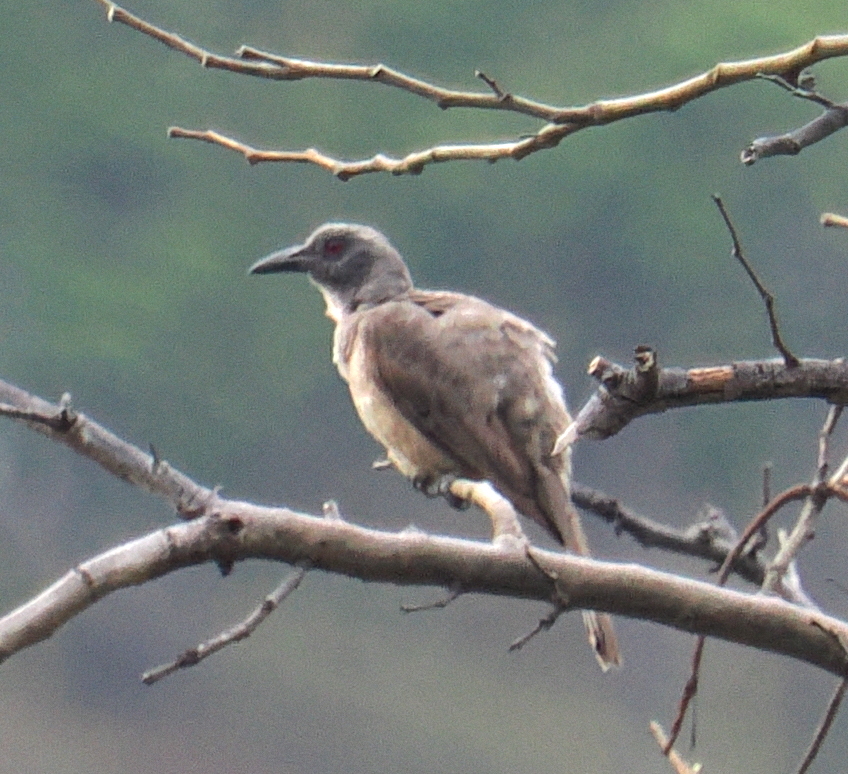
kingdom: Animalia
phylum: Chordata
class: Aves
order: Passeriformes
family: Oriolidae
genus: Oriolus
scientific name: Oriolus finschi
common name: Wetar oriole
